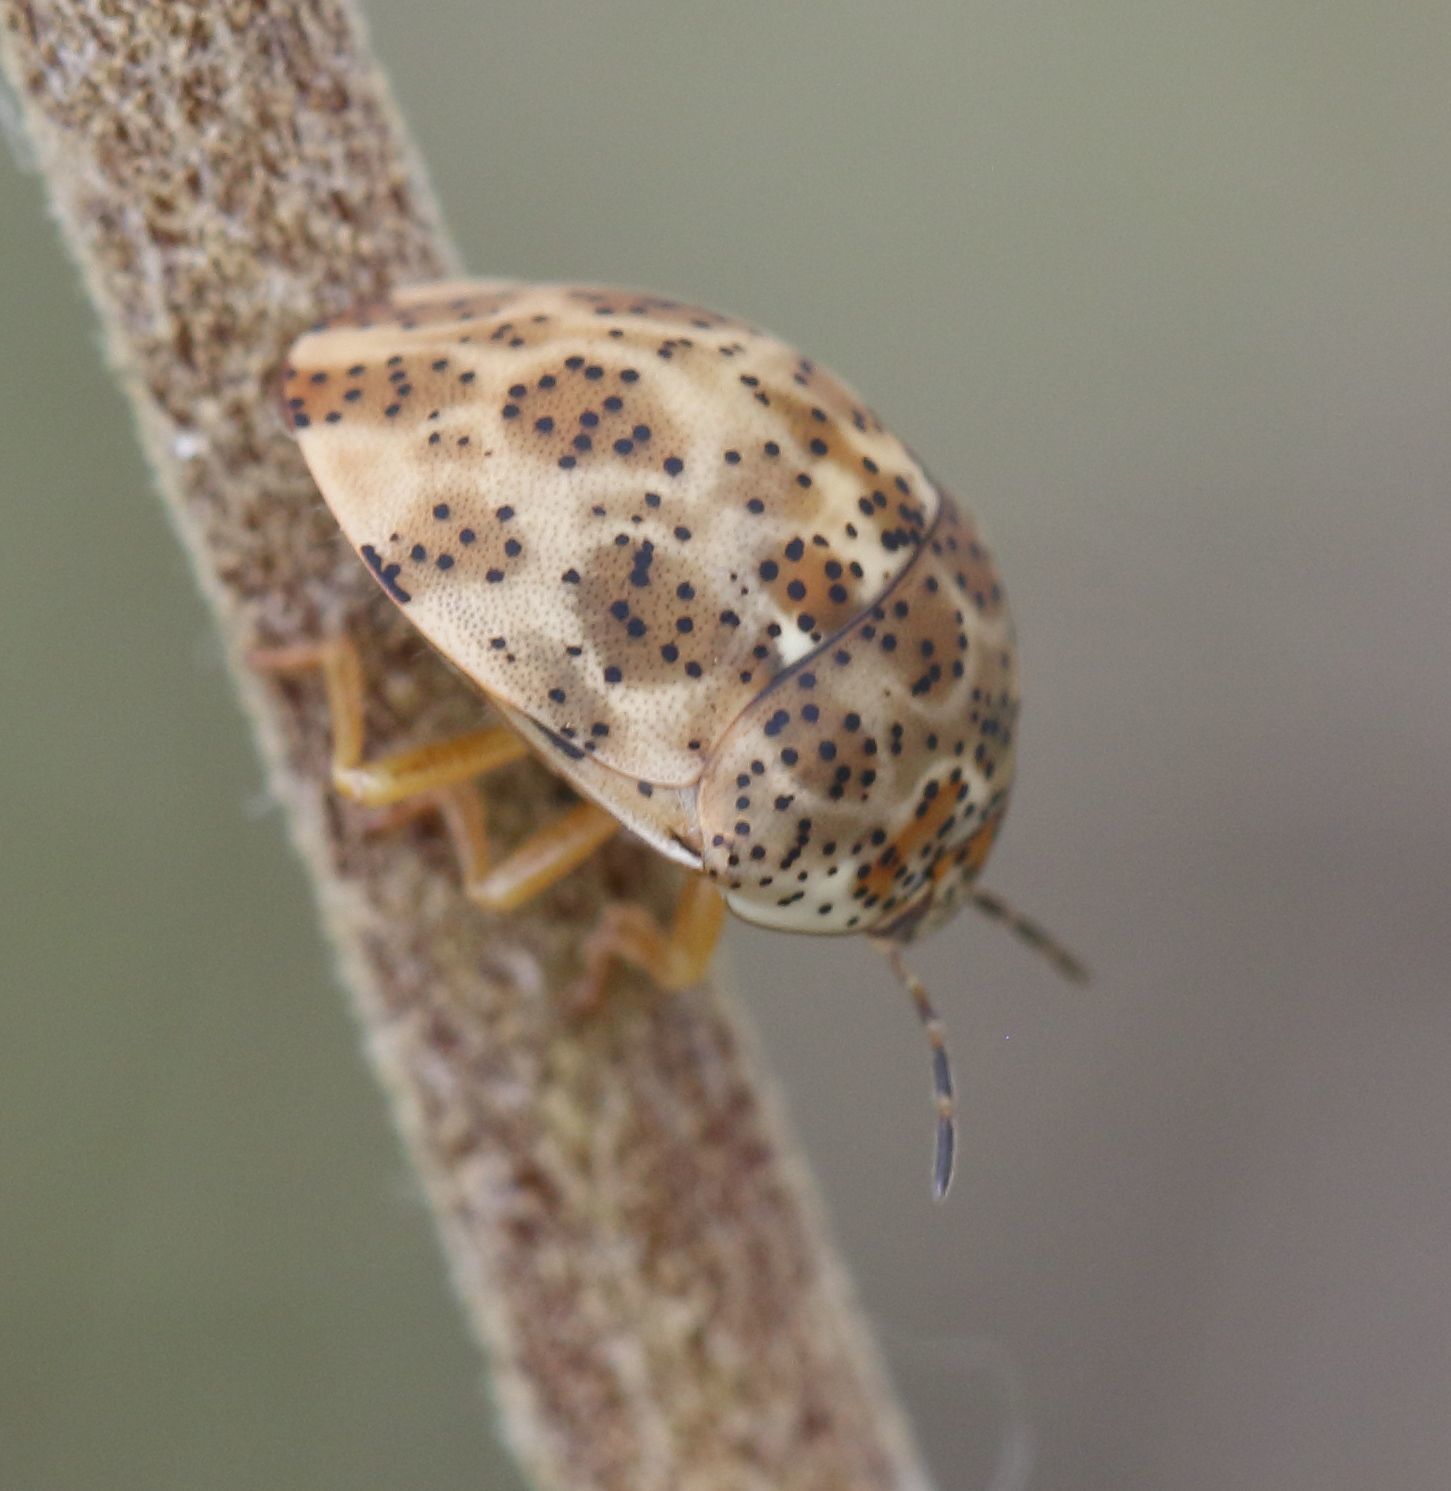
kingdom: Animalia
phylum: Arthropoda
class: Insecta
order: Hemiptera
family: Scutelleridae
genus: Sphaerocoris
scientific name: Sphaerocoris
